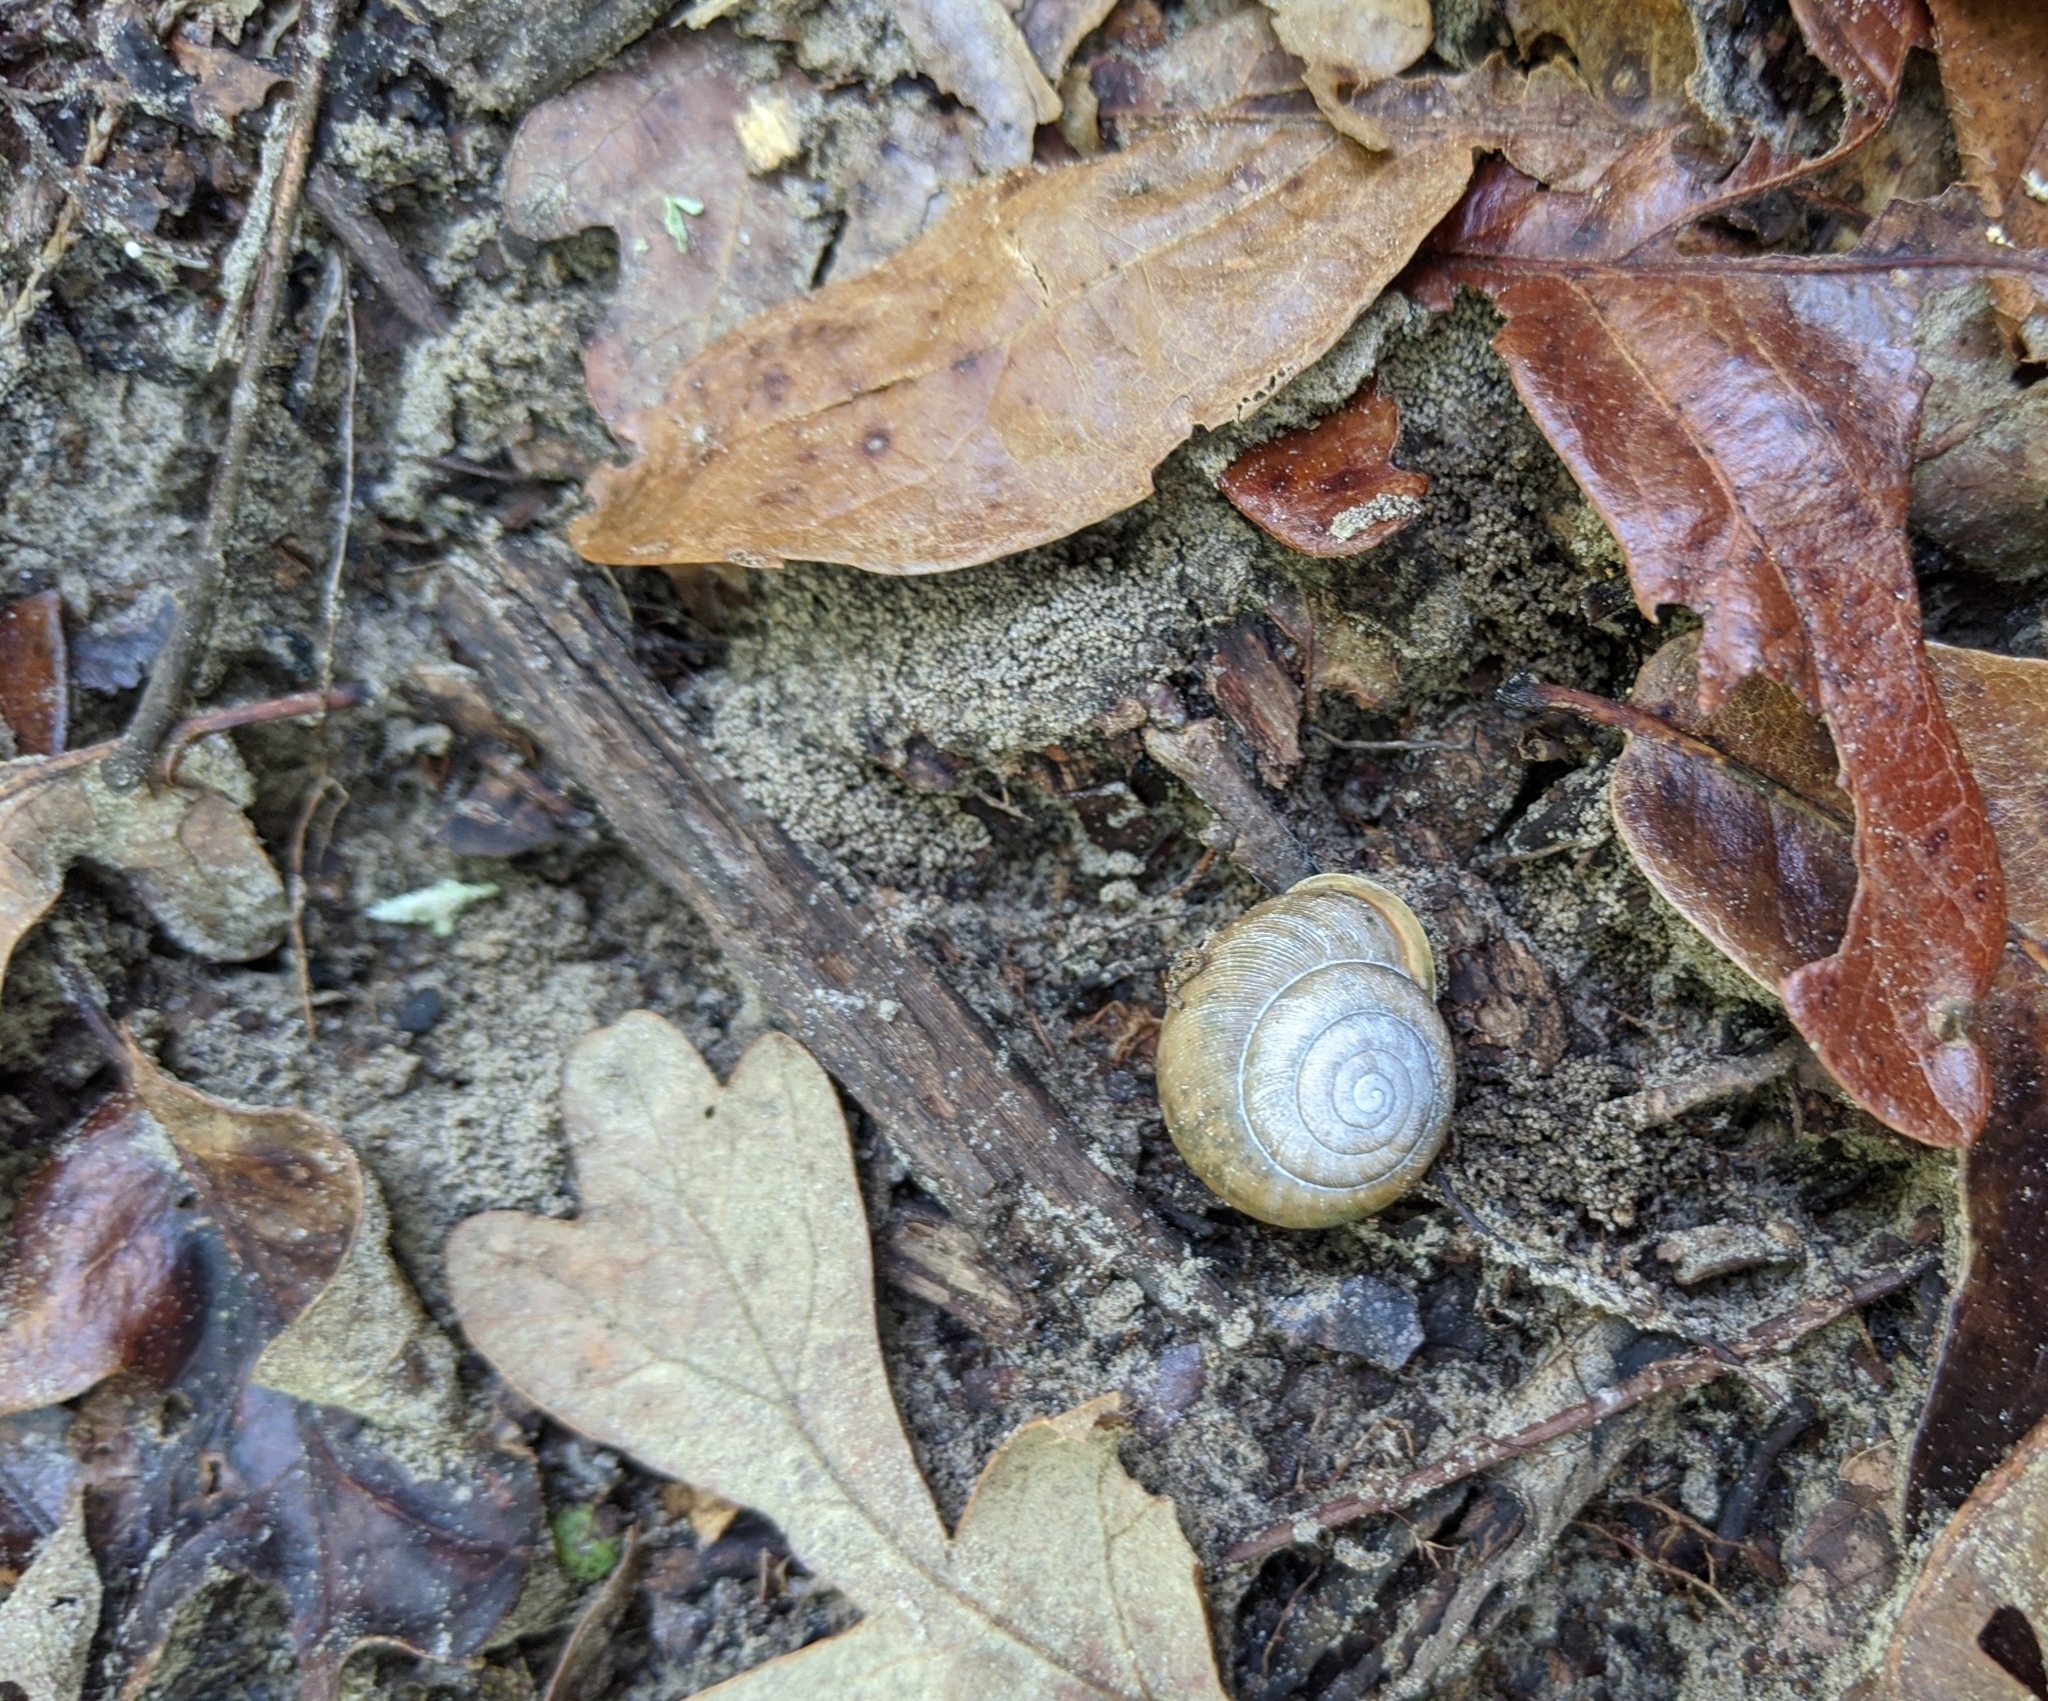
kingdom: Animalia
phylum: Mollusca
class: Gastropoda
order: Stylommatophora
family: Polygyridae
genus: Mesodon
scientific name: Mesodon thyroidus
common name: White-lip globe
